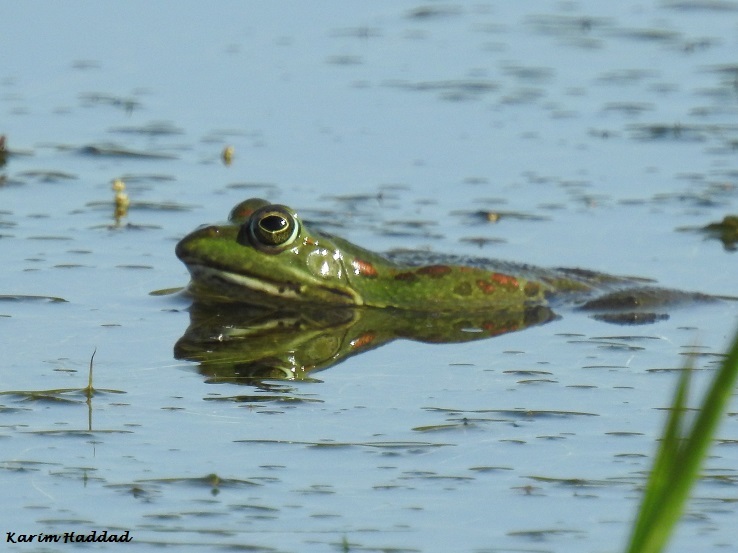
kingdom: Animalia
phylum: Chordata
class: Amphibia
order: Anura
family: Ranidae
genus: Pelophylax
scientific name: Pelophylax saharicus
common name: Sahara frog
